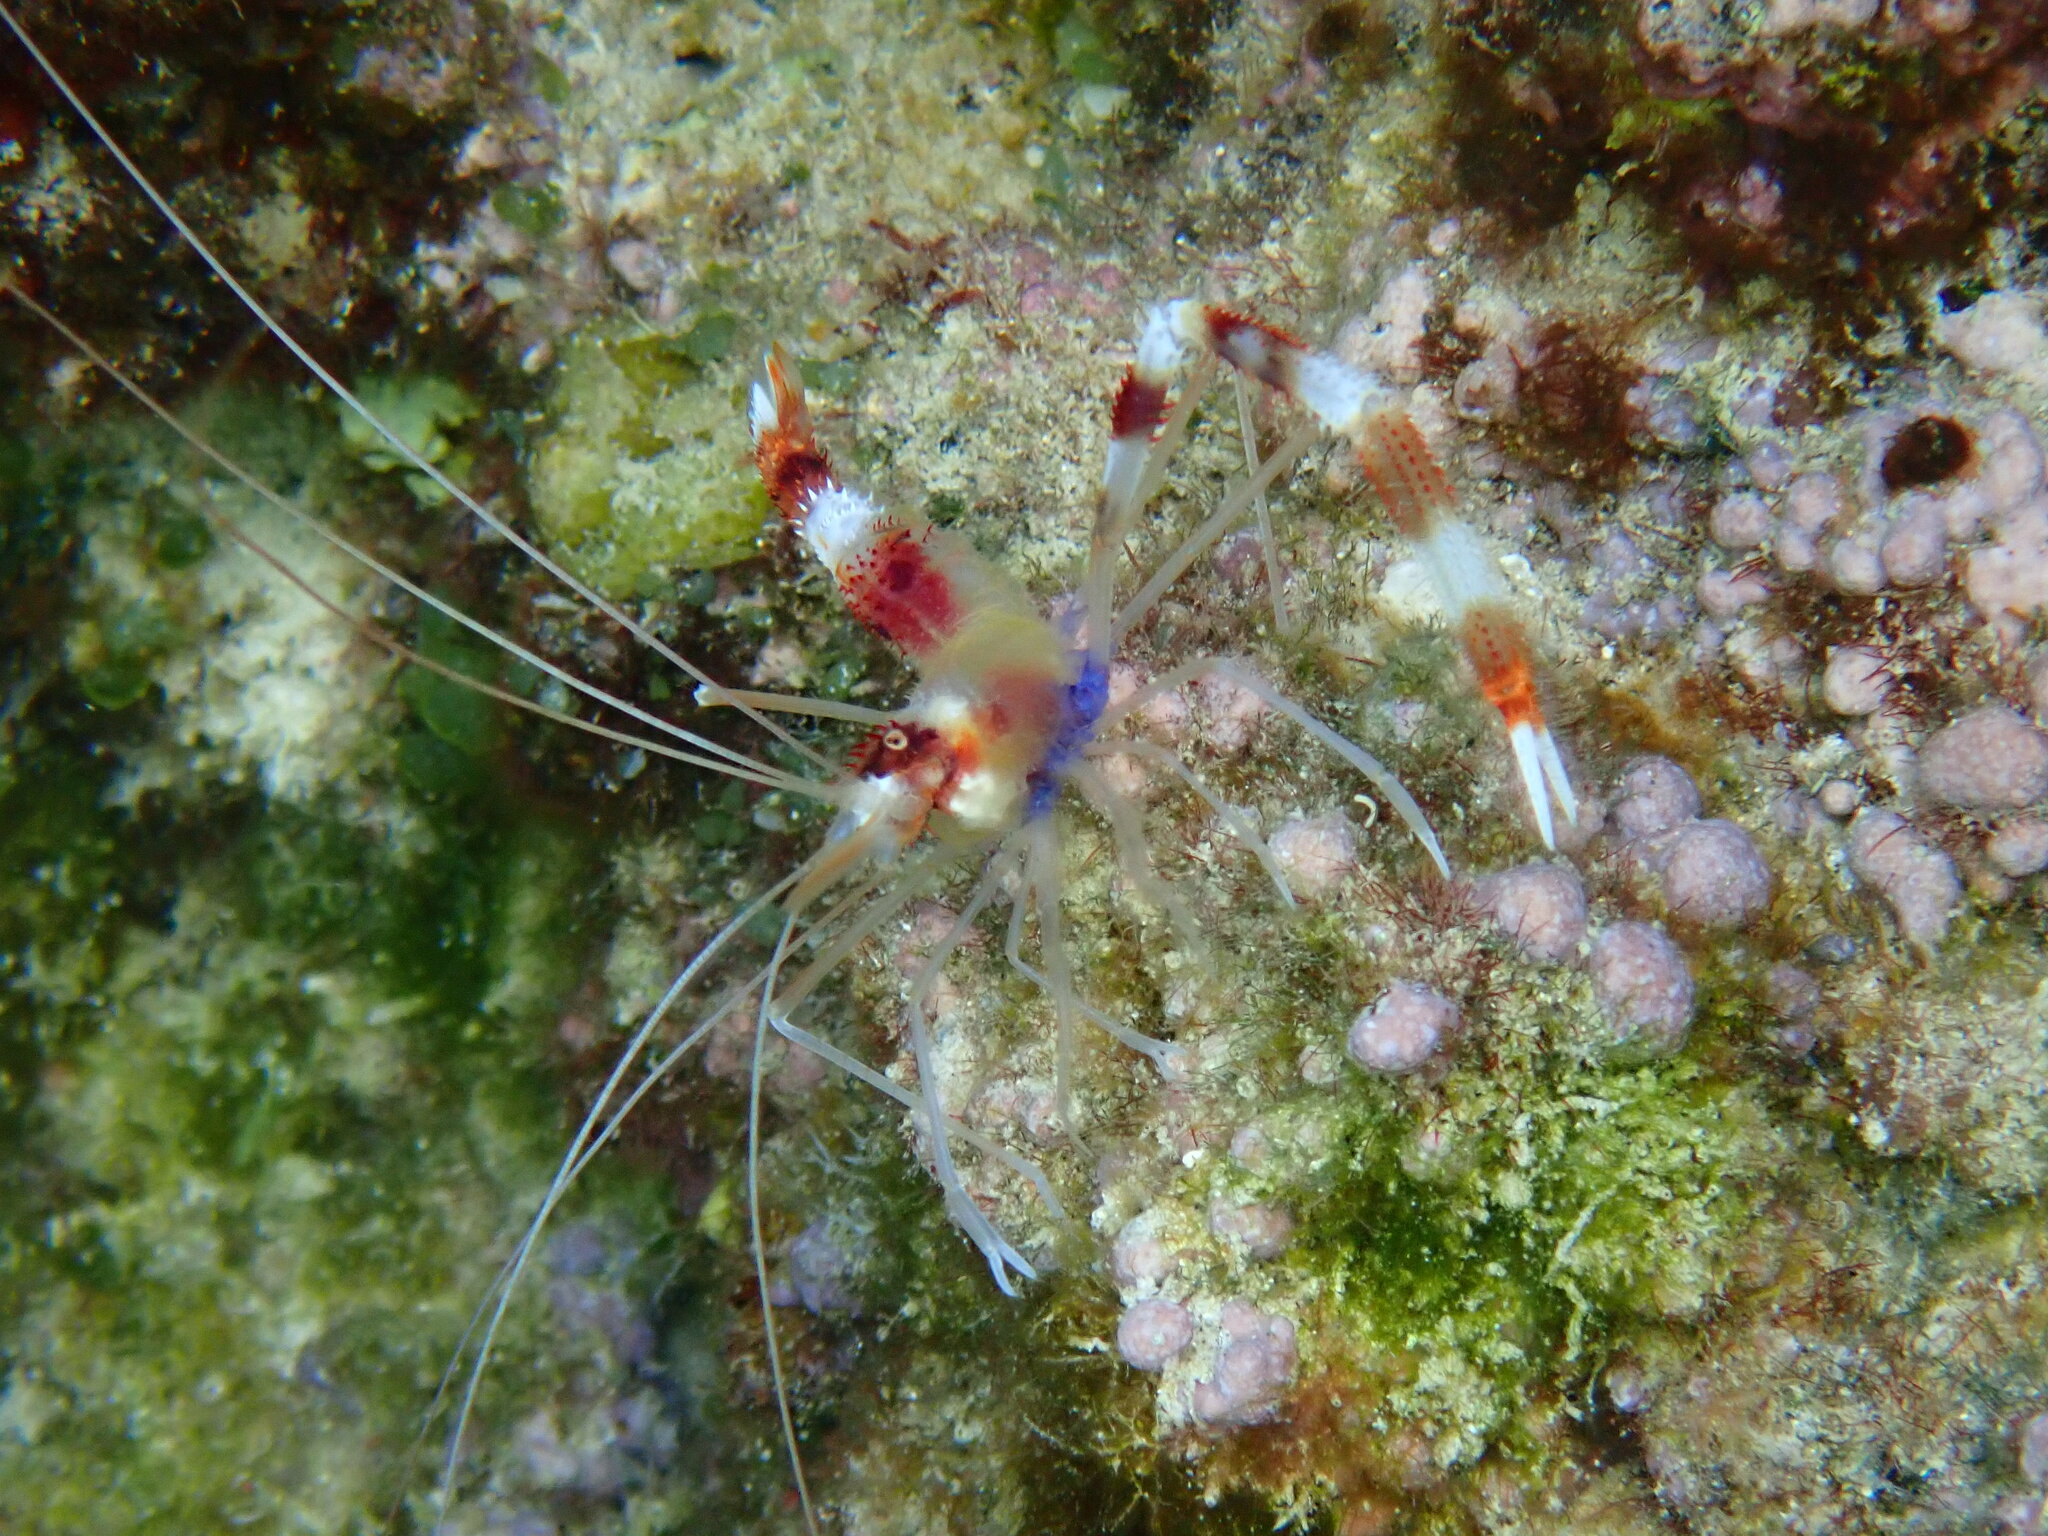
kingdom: Animalia
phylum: Arthropoda
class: Malacostraca
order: Decapoda
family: Stenopodidae
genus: Stenopus
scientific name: Stenopus hispidus
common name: Banded coral shrimp
